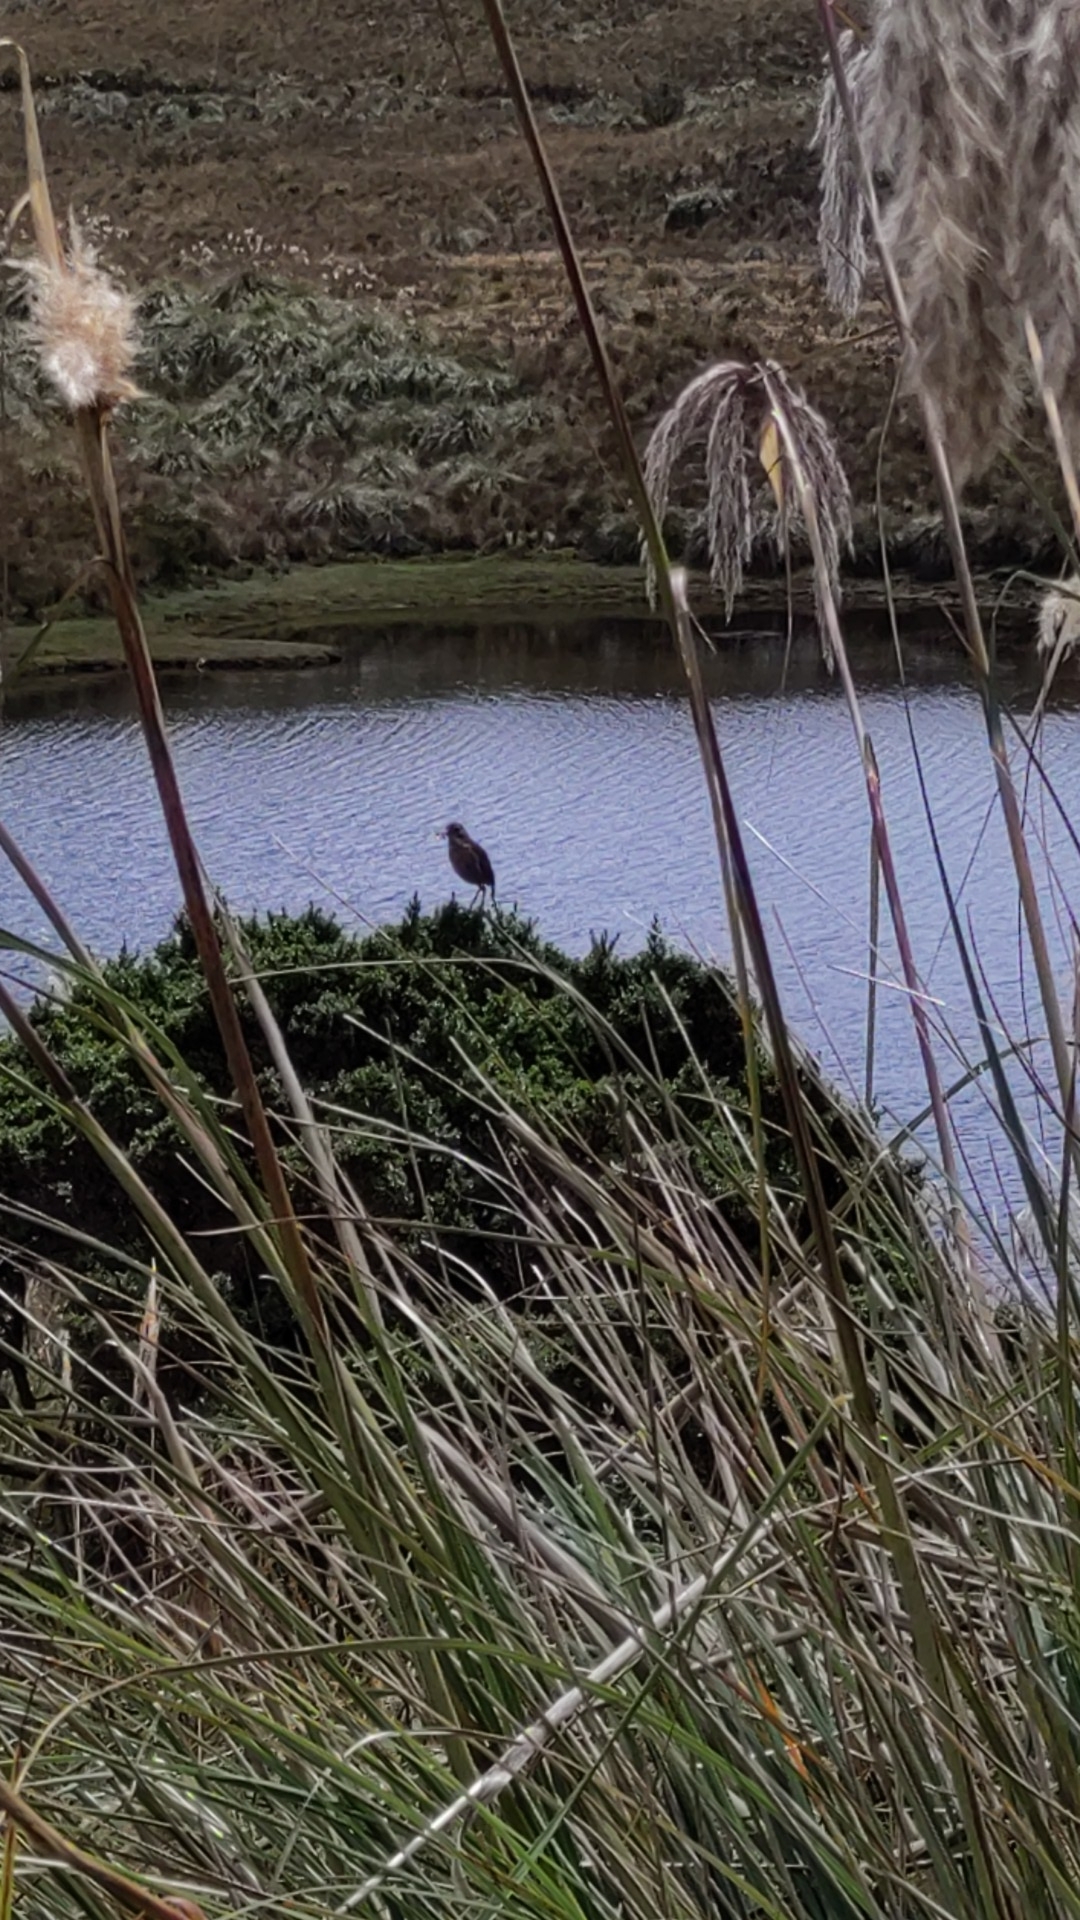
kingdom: Animalia
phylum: Chordata
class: Aves
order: Passeriformes
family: Grallariidae
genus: Grallaria
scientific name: Grallaria quitensis
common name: Tawny antpitta
